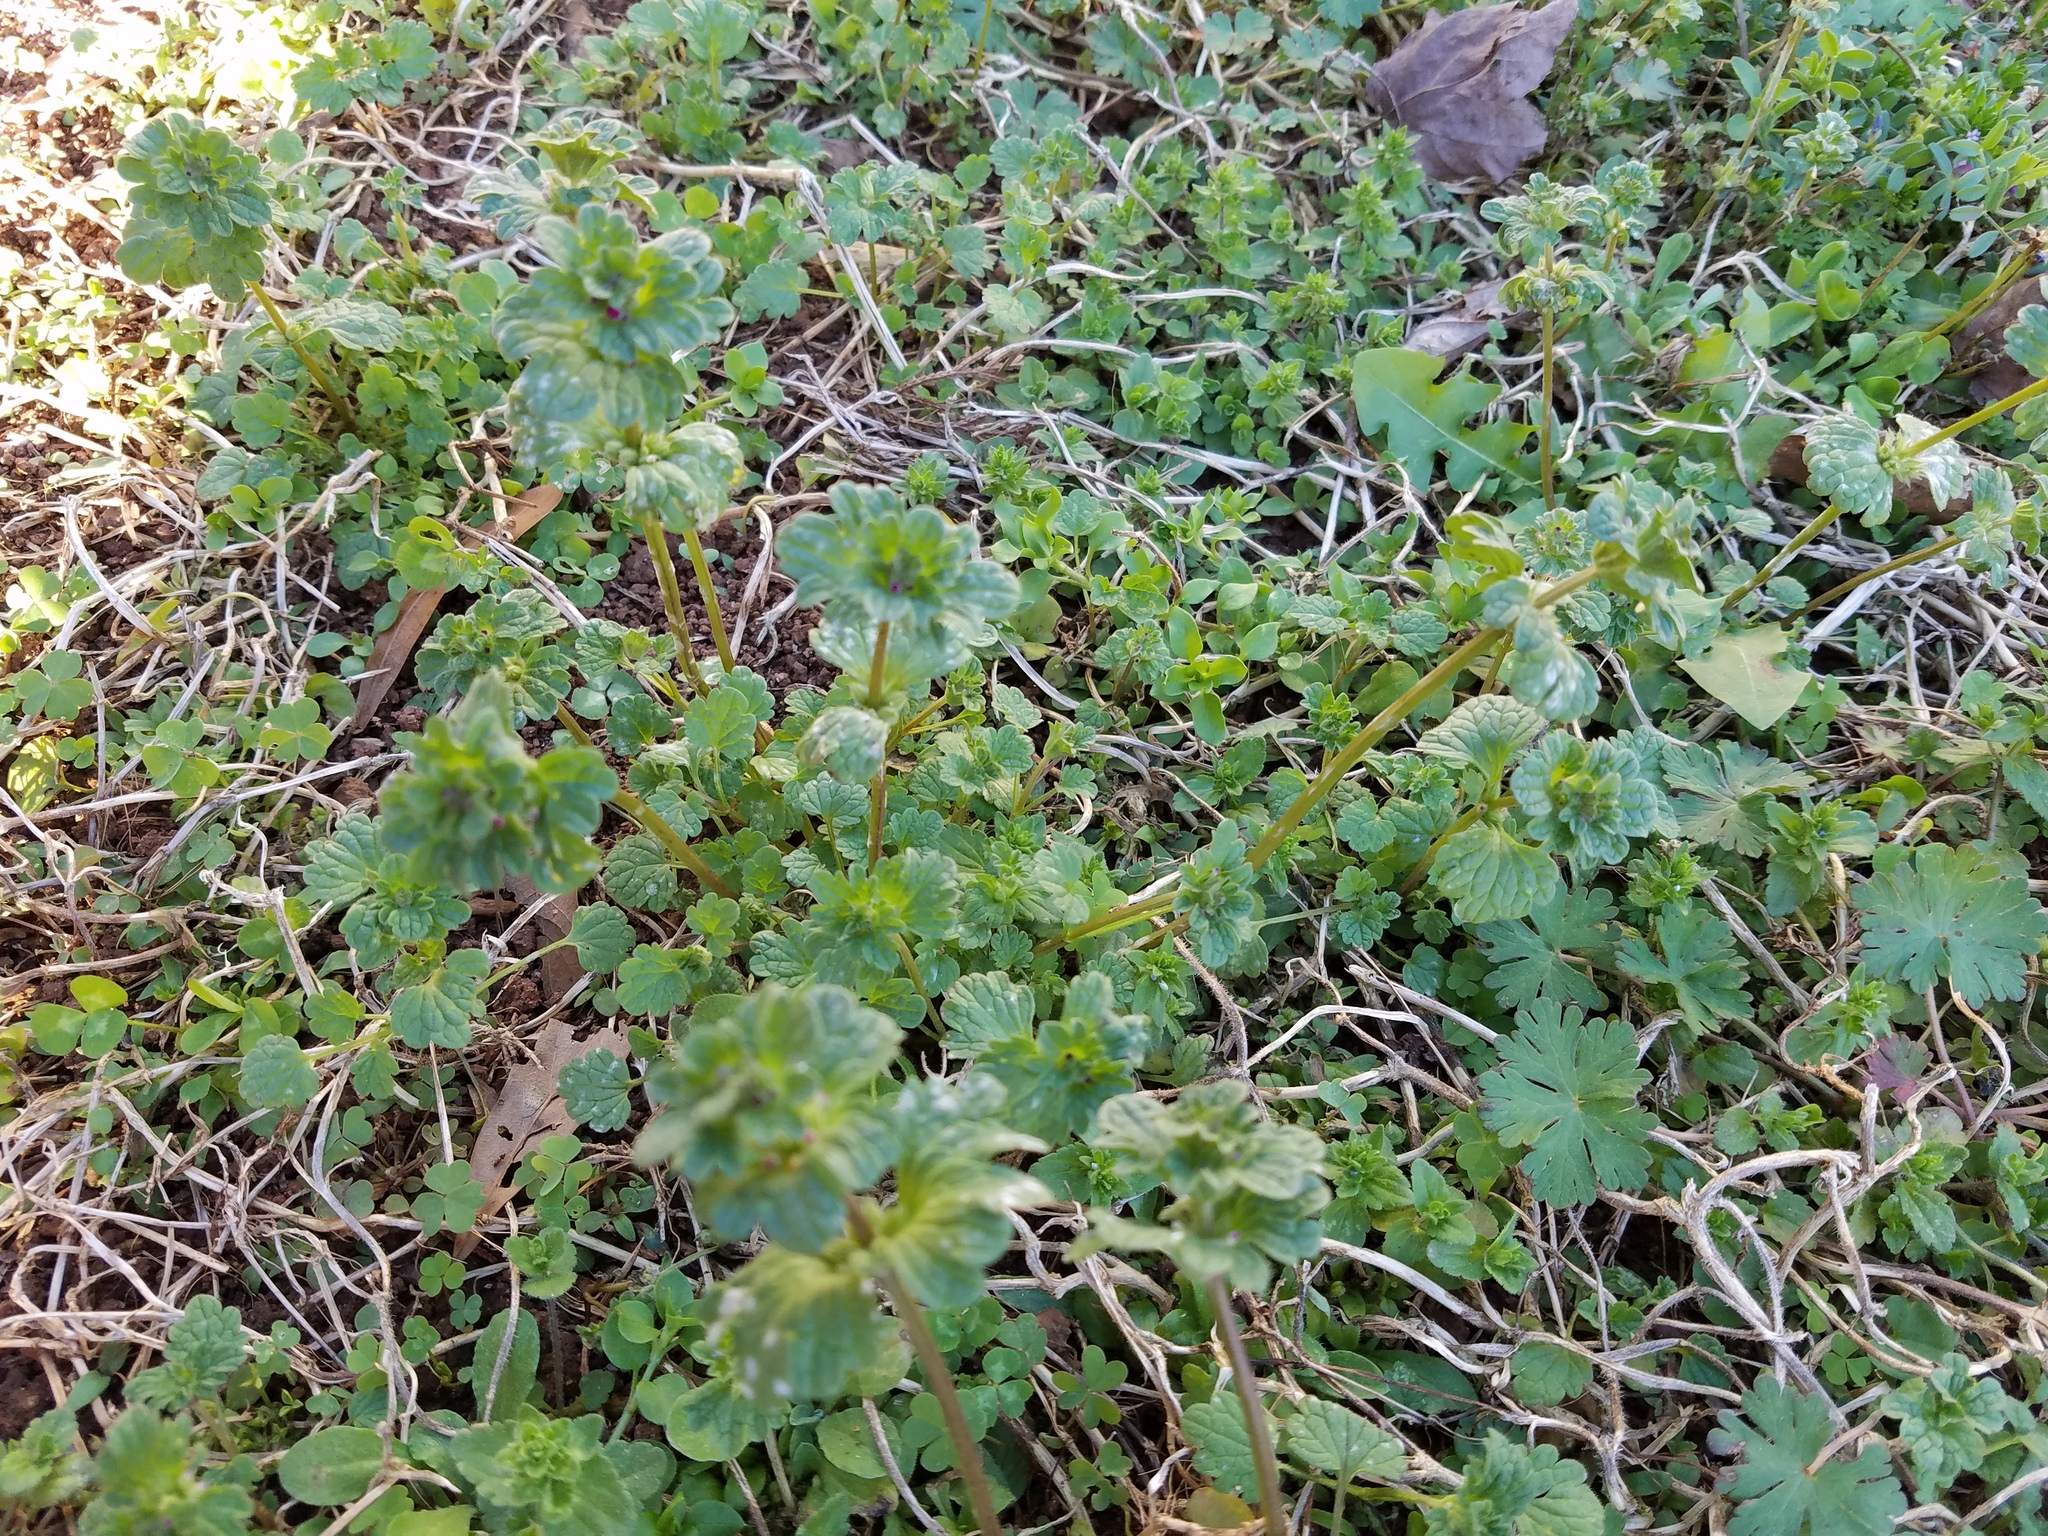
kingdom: Plantae
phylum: Tracheophyta
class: Magnoliopsida
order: Lamiales
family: Lamiaceae
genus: Lamium
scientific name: Lamium amplexicaule
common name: Henbit dead-nettle
